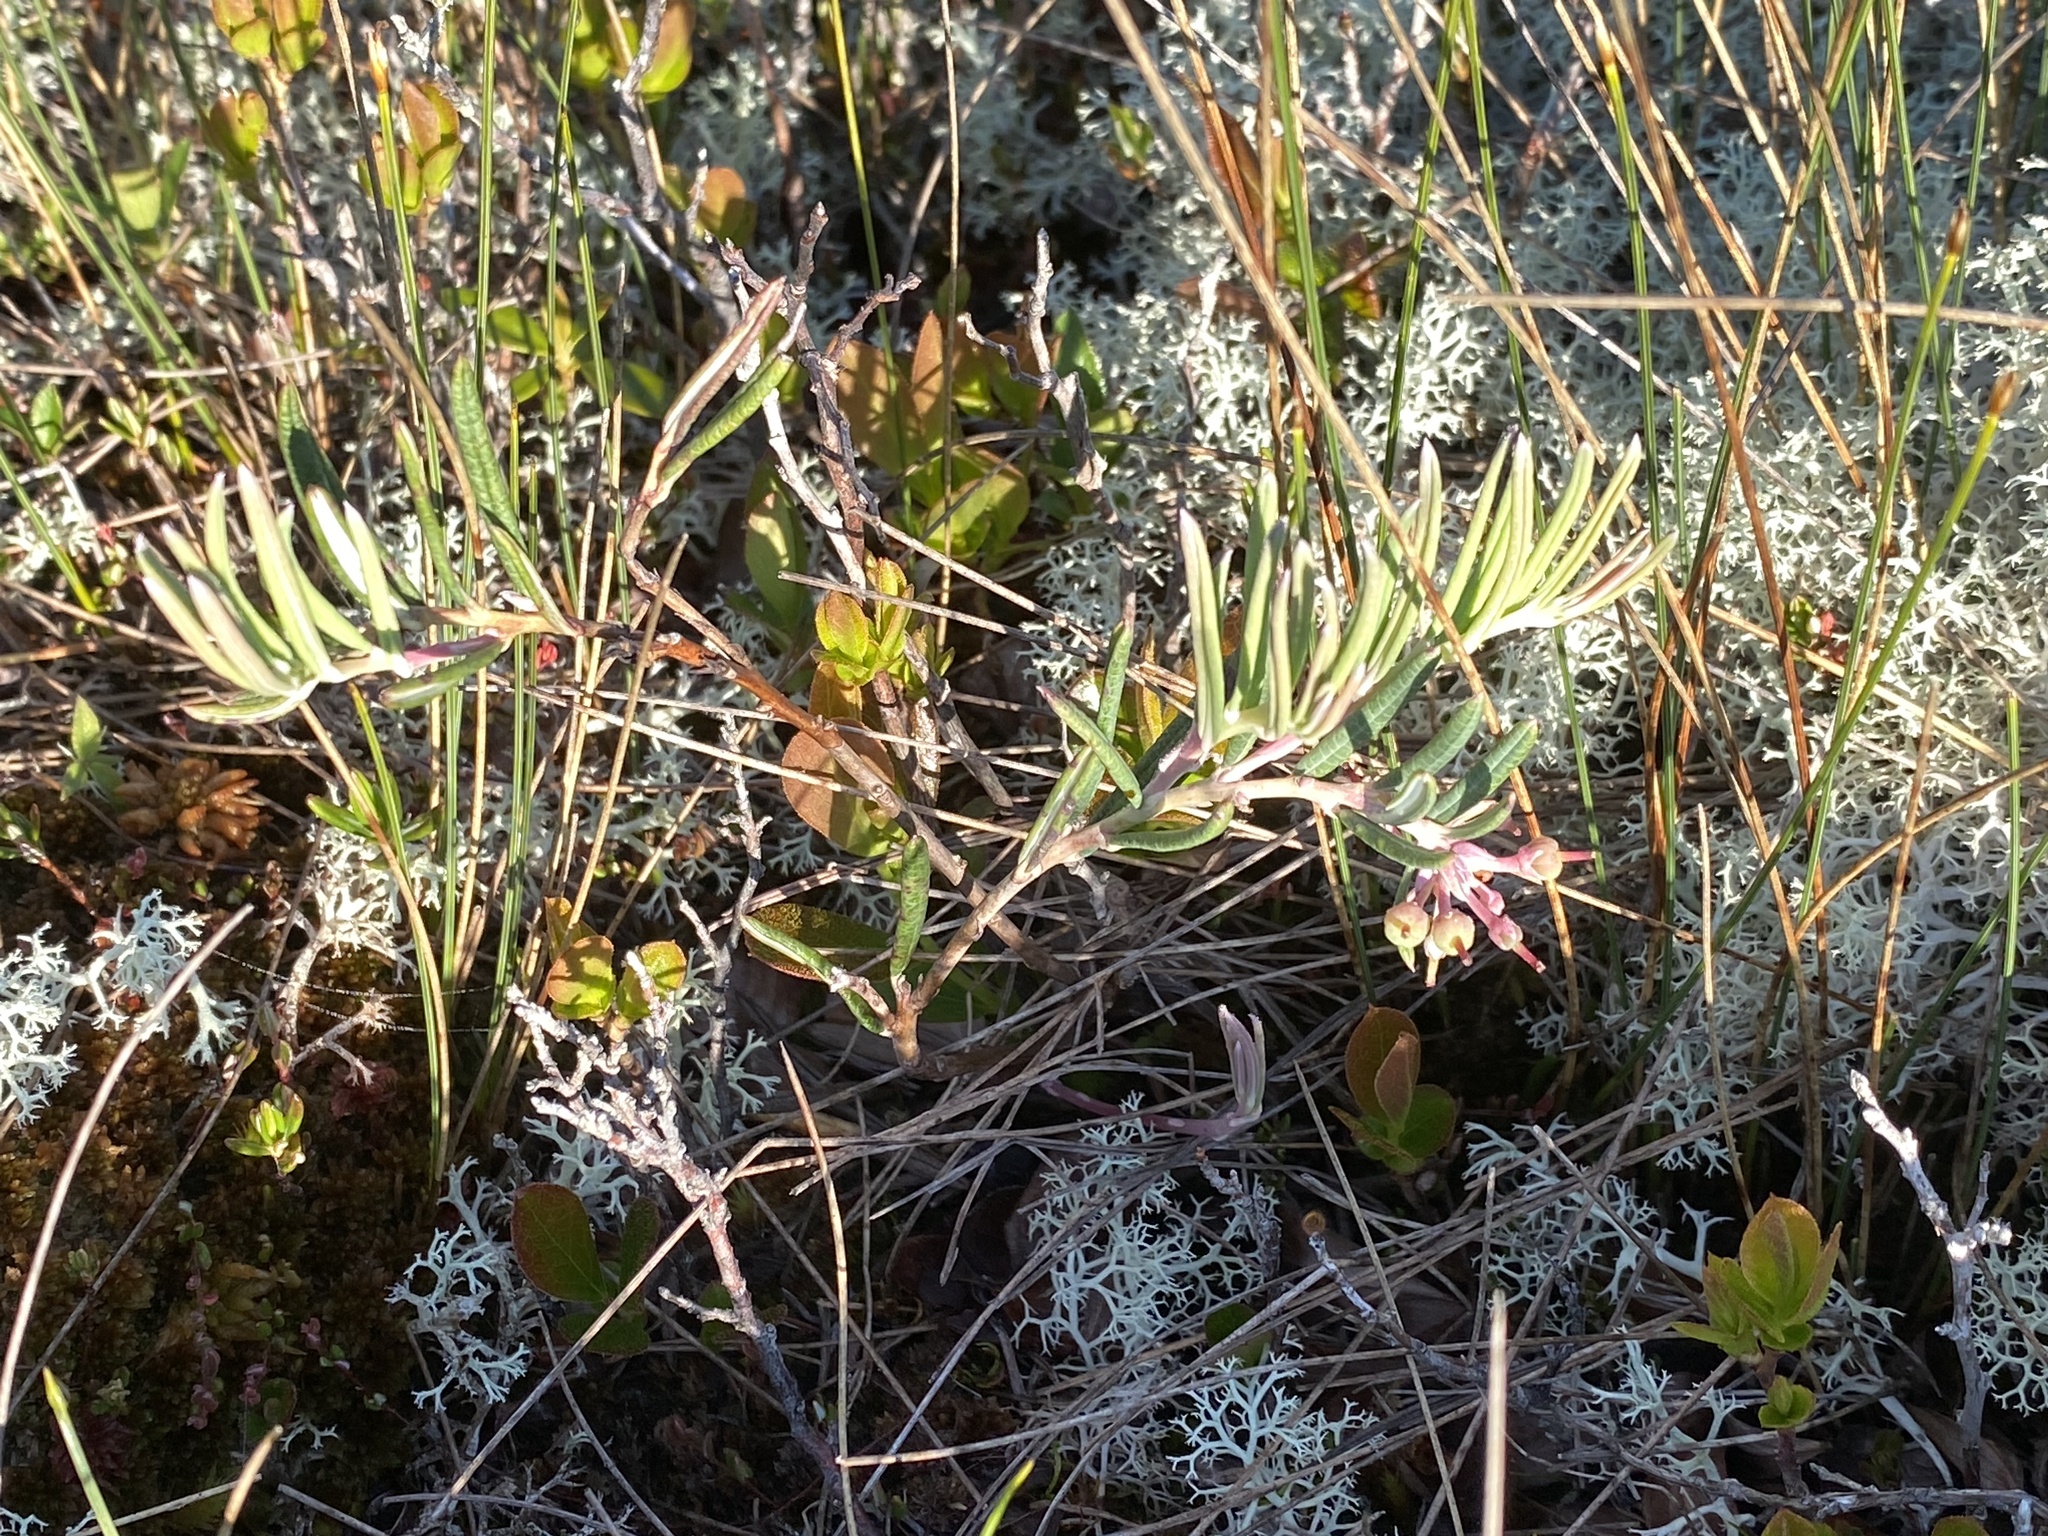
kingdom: Plantae
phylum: Tracheophyta
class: Magnoliopsida
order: Ericales
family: Ericaceae
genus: Andromeda
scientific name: Andromeda polifolia
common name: Bog-rosemary
